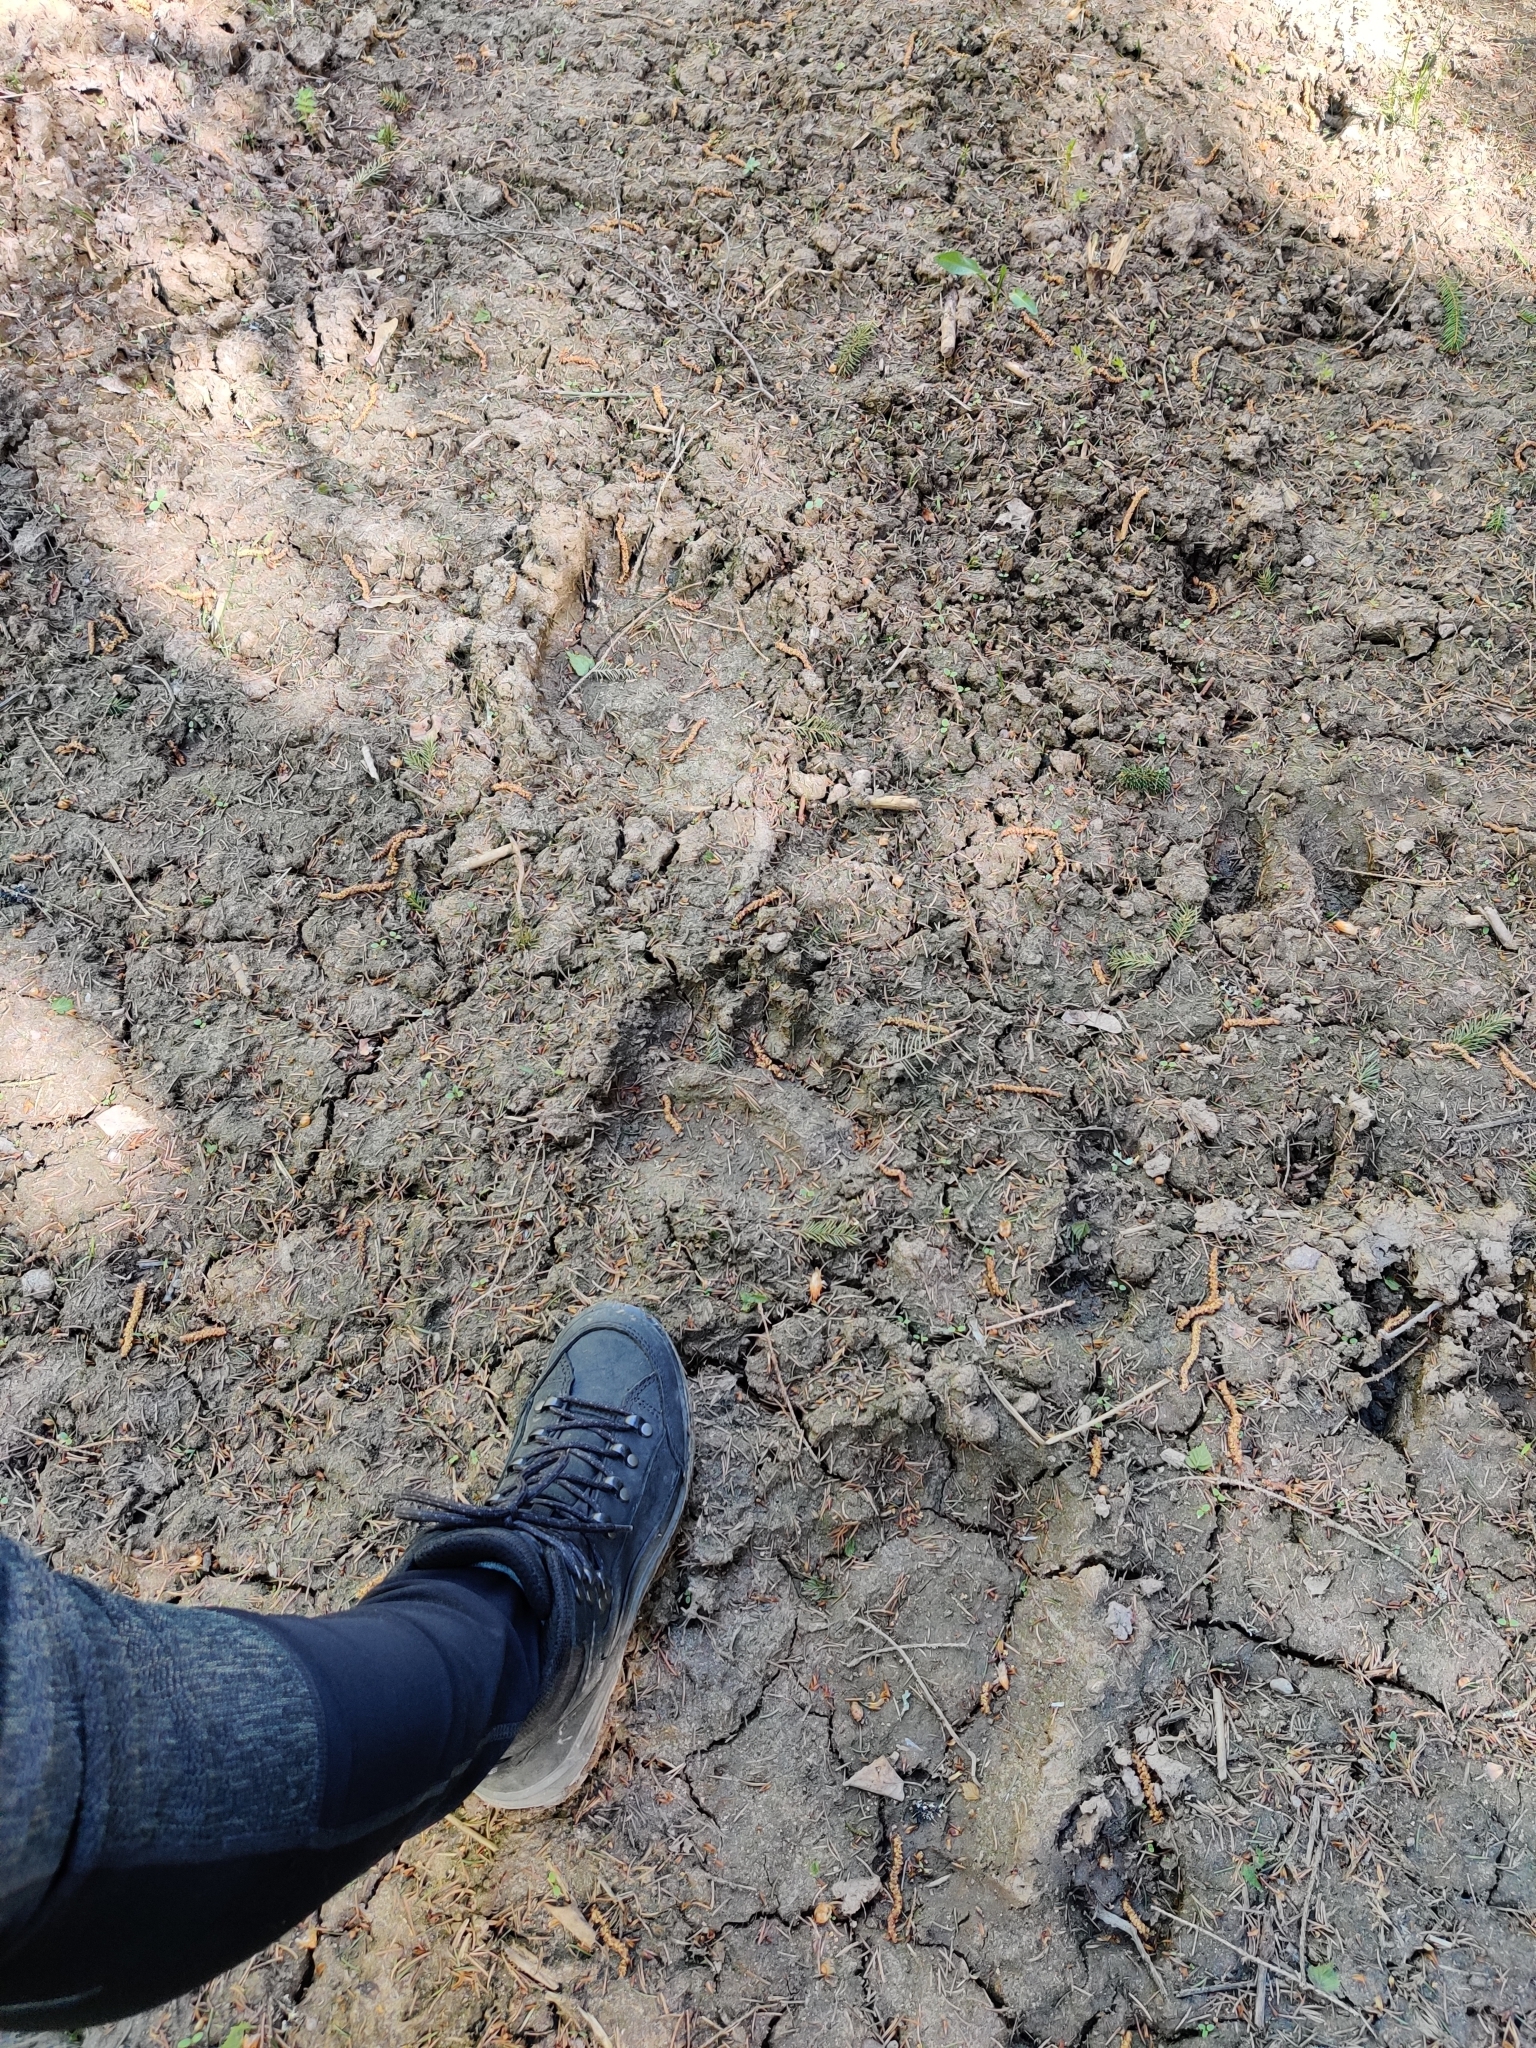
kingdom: Animalia
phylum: Chordata
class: Mammalia
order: Carnivora
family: Ursidae
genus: Ursus
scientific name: Ursus arctos
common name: Brown bear
